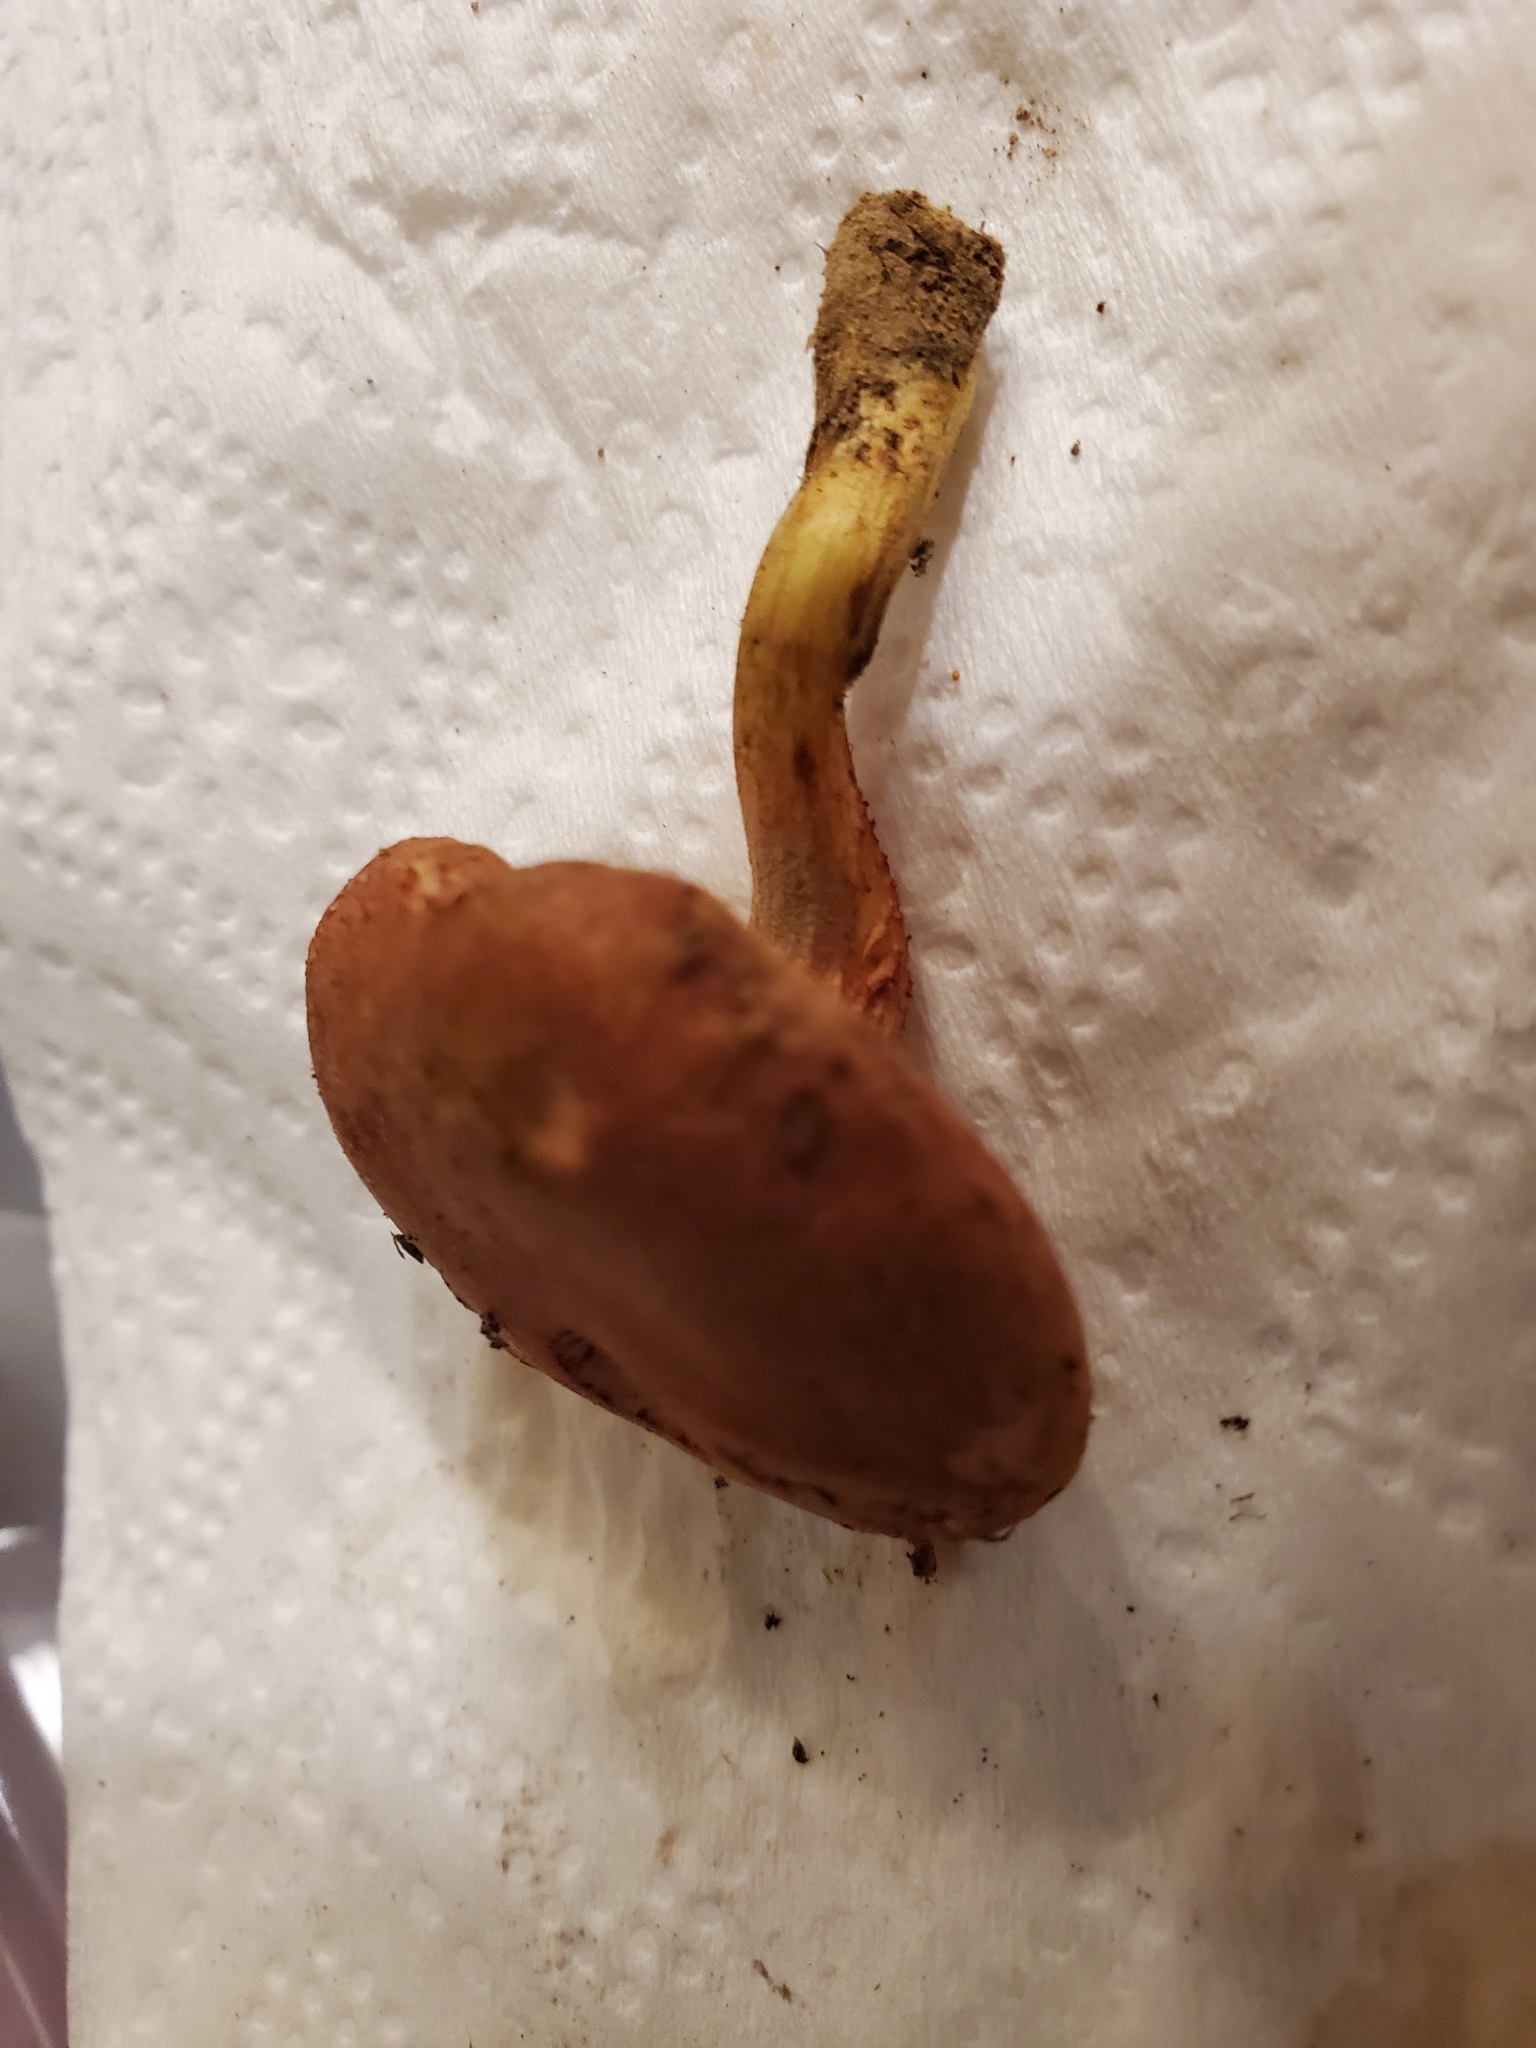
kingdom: Fungi
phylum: Basidiomycota
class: Agaricomycetes
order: Boletales
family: Boletaceae
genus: Phylloporus
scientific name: Phylloporus rhodoxanthus
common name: Golden gilled bolete
